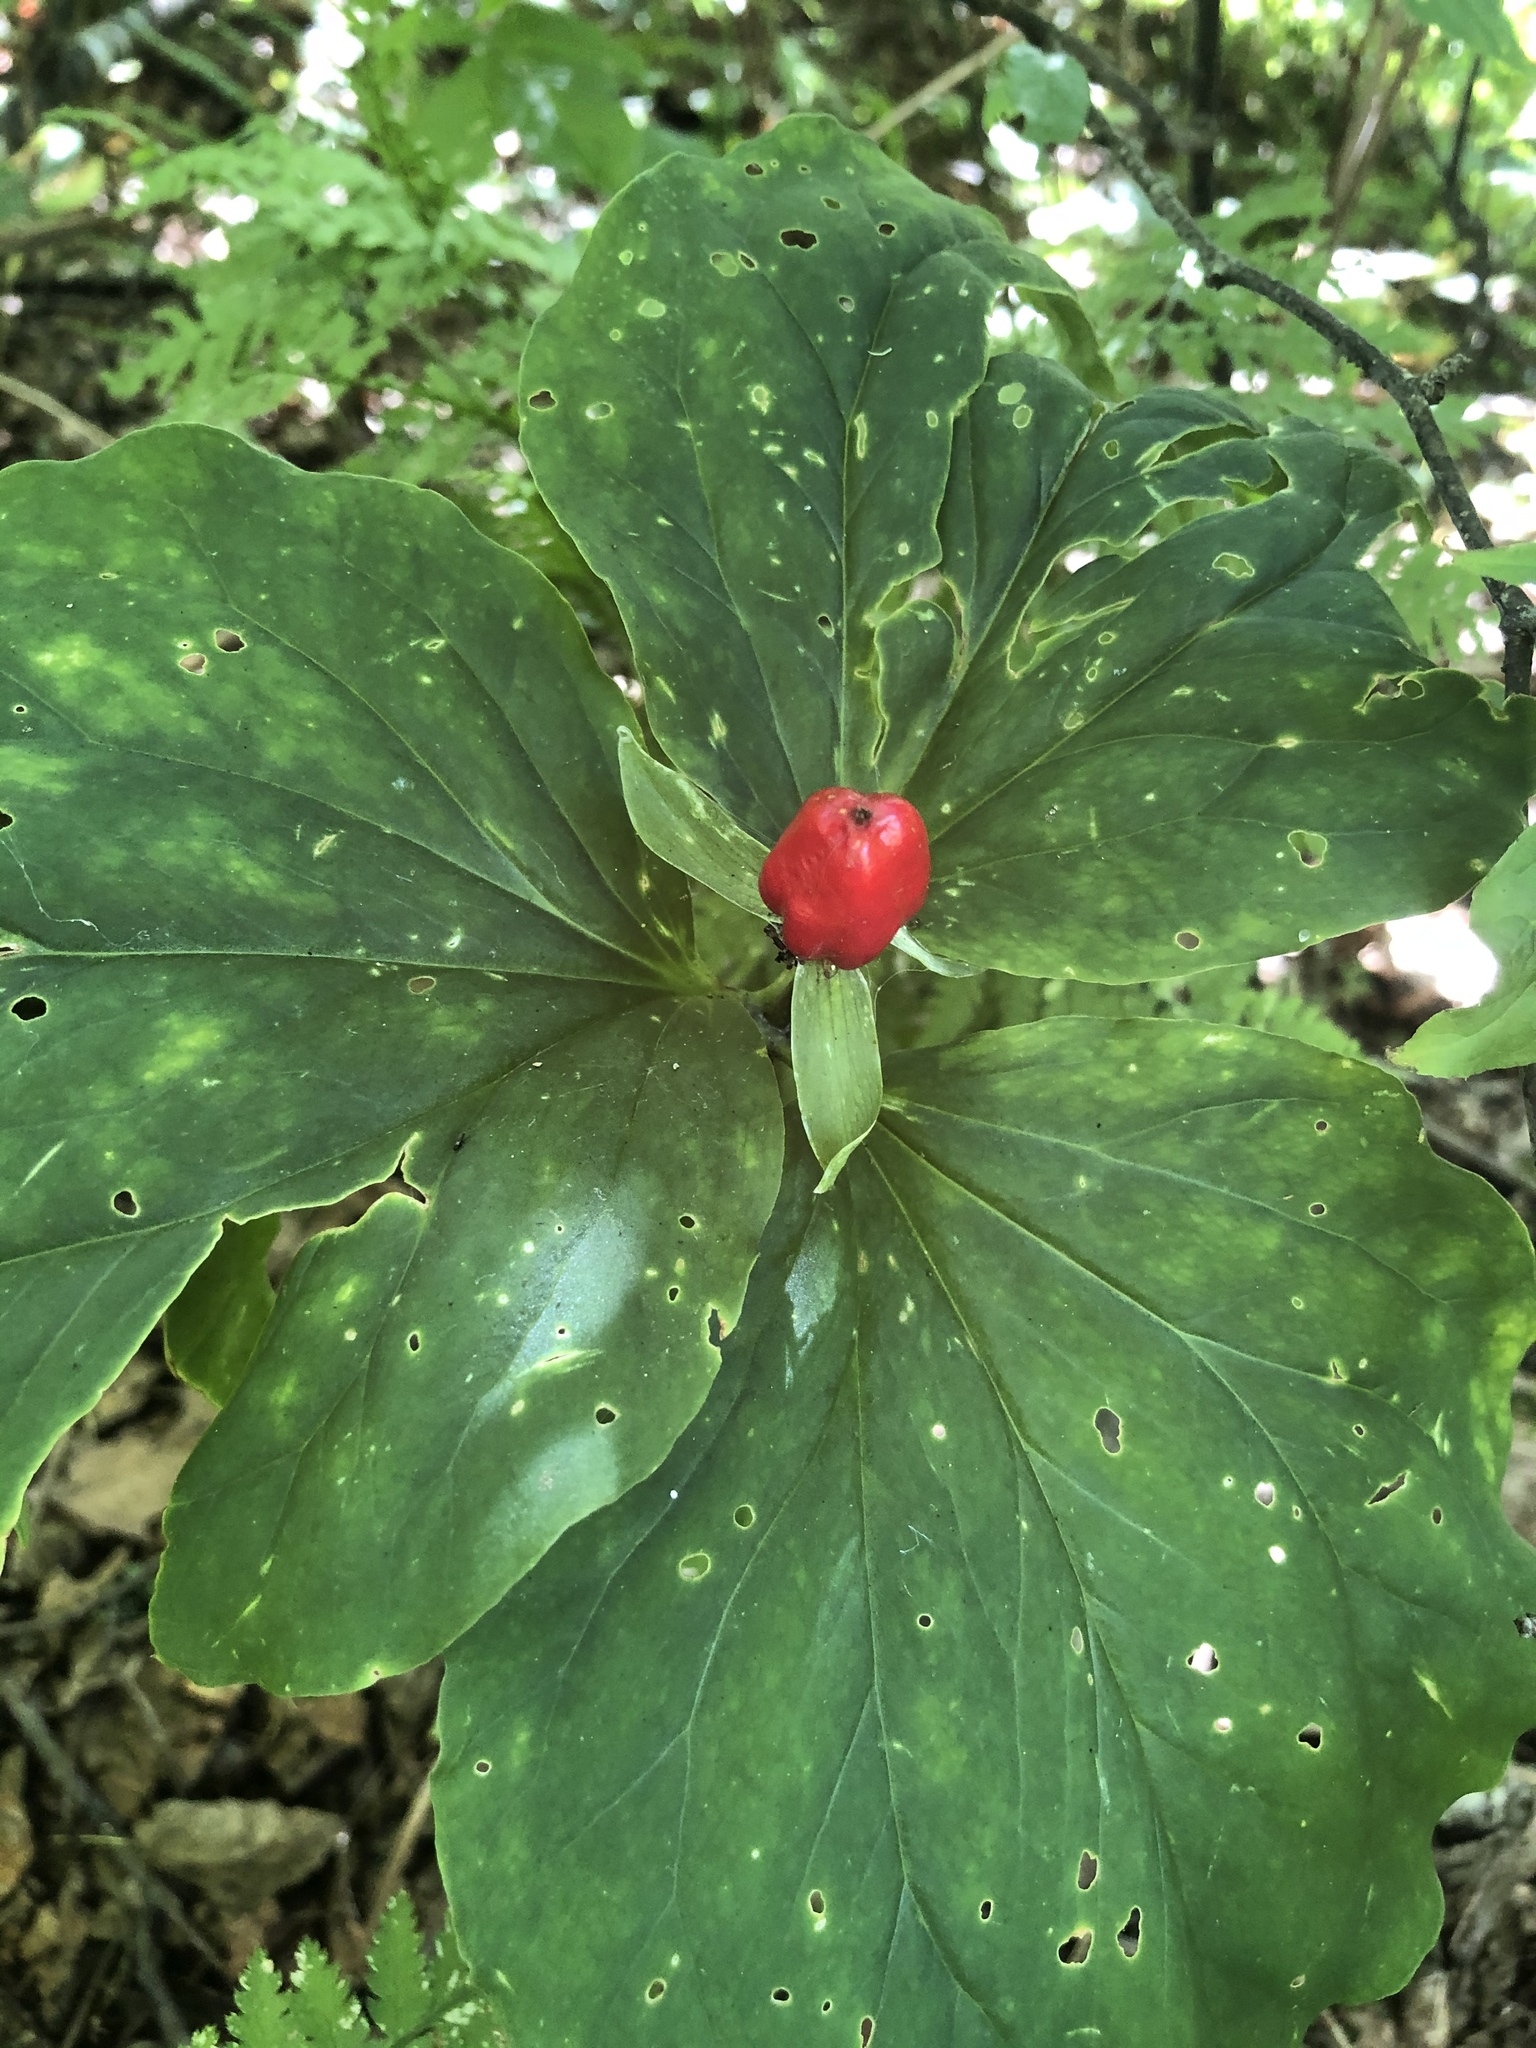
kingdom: Plantae
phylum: Tracheophyta
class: Liliopsida
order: Liliales
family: Melanthiaceae
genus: Trillium
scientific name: Trillium undulatum
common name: Paint trillium
